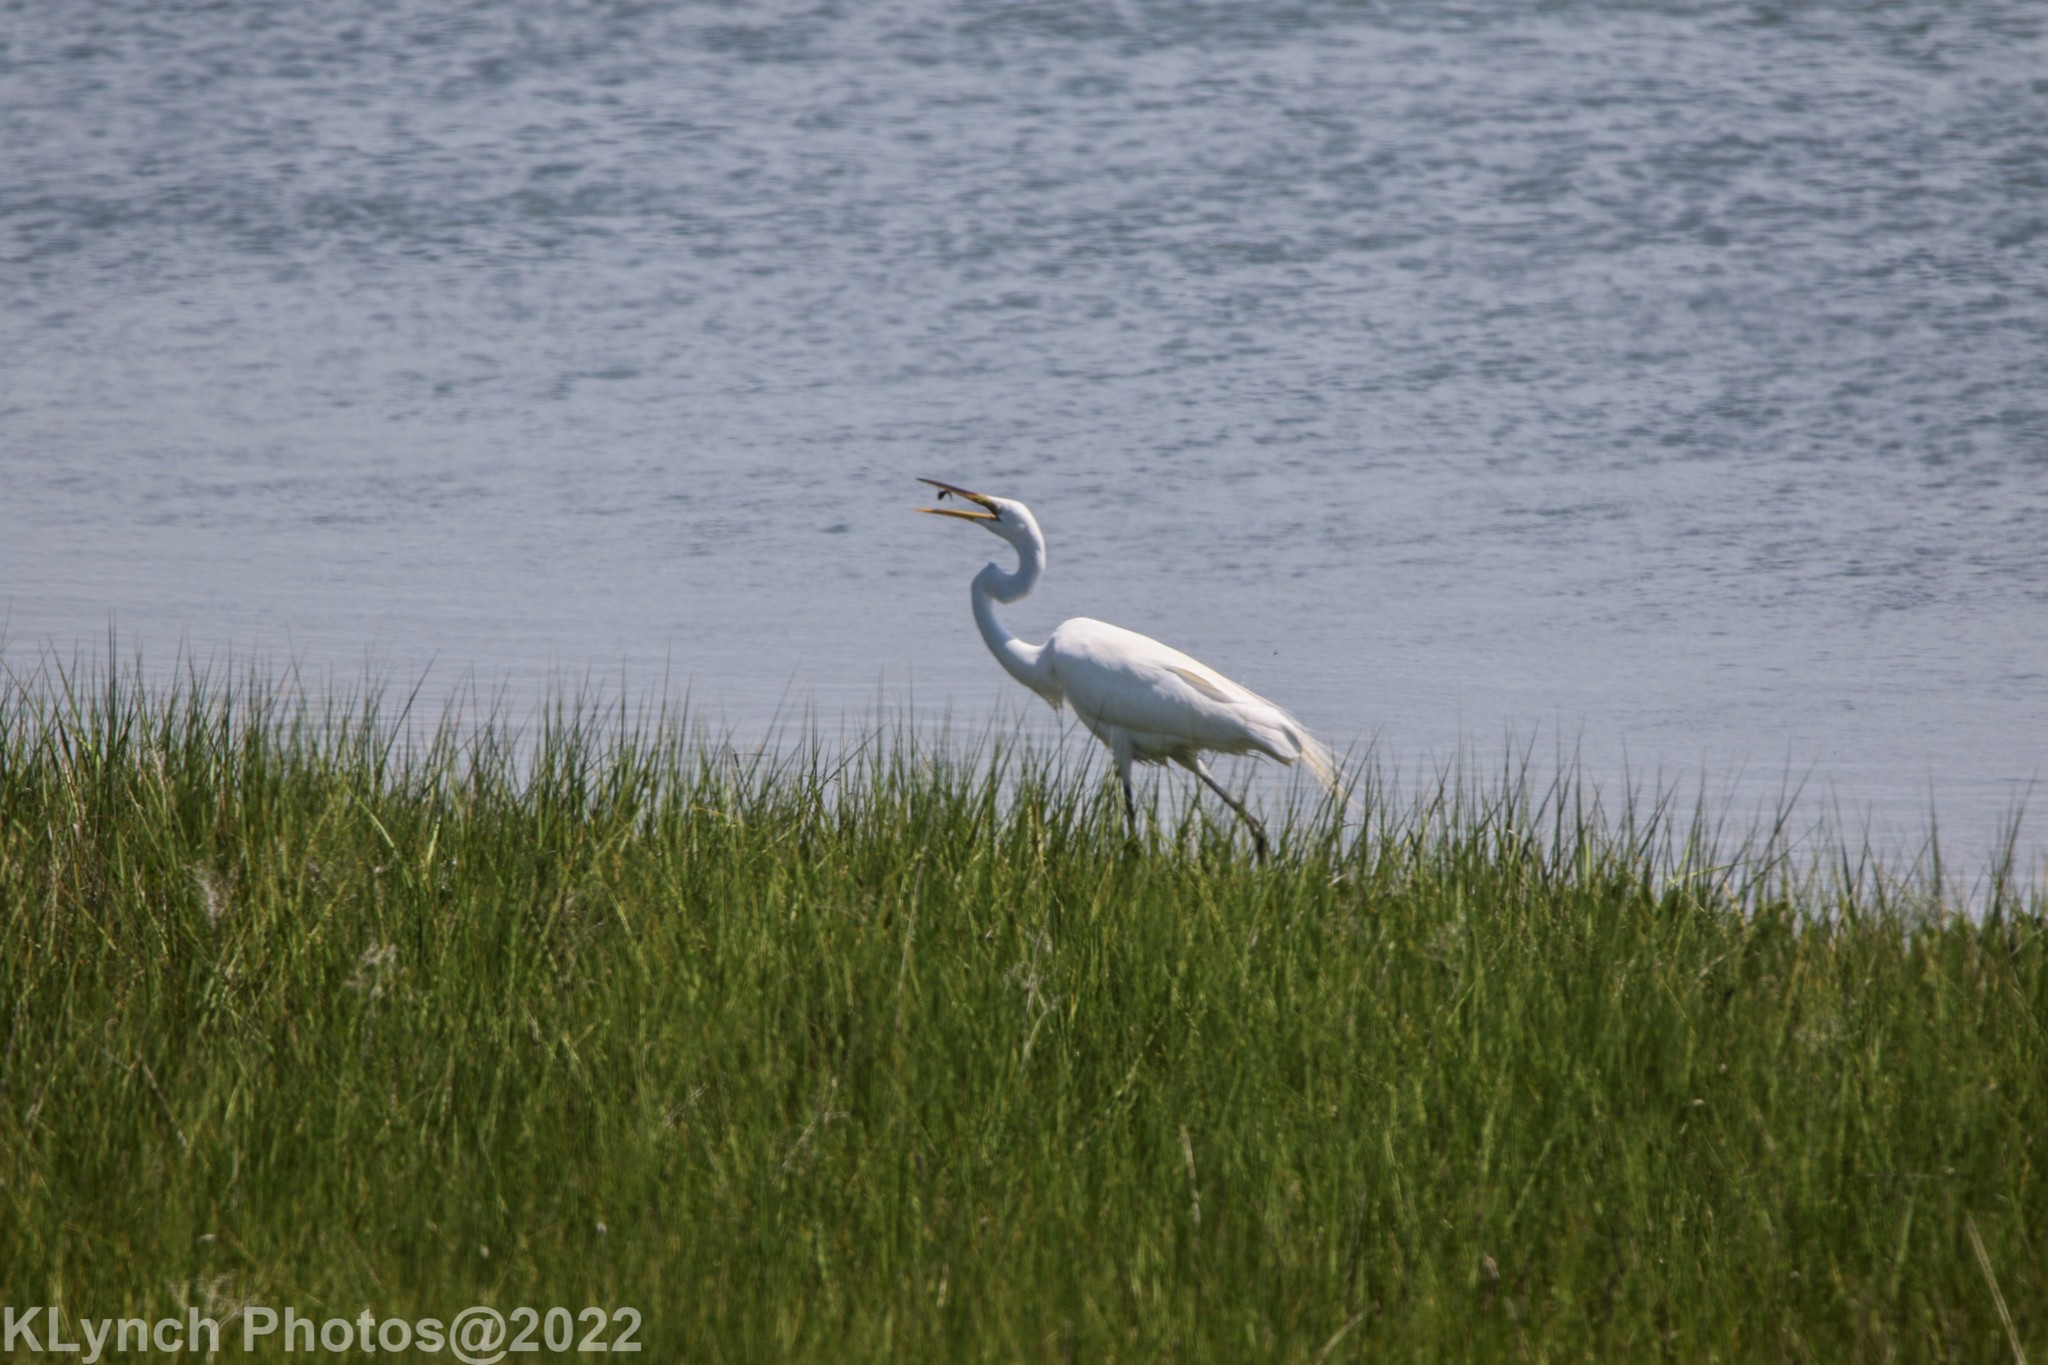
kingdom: Animalia
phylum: Chordata
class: Aves
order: Pelecaniformes
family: Ardeidae
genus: Ardea
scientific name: Ardea alba
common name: Great egret
